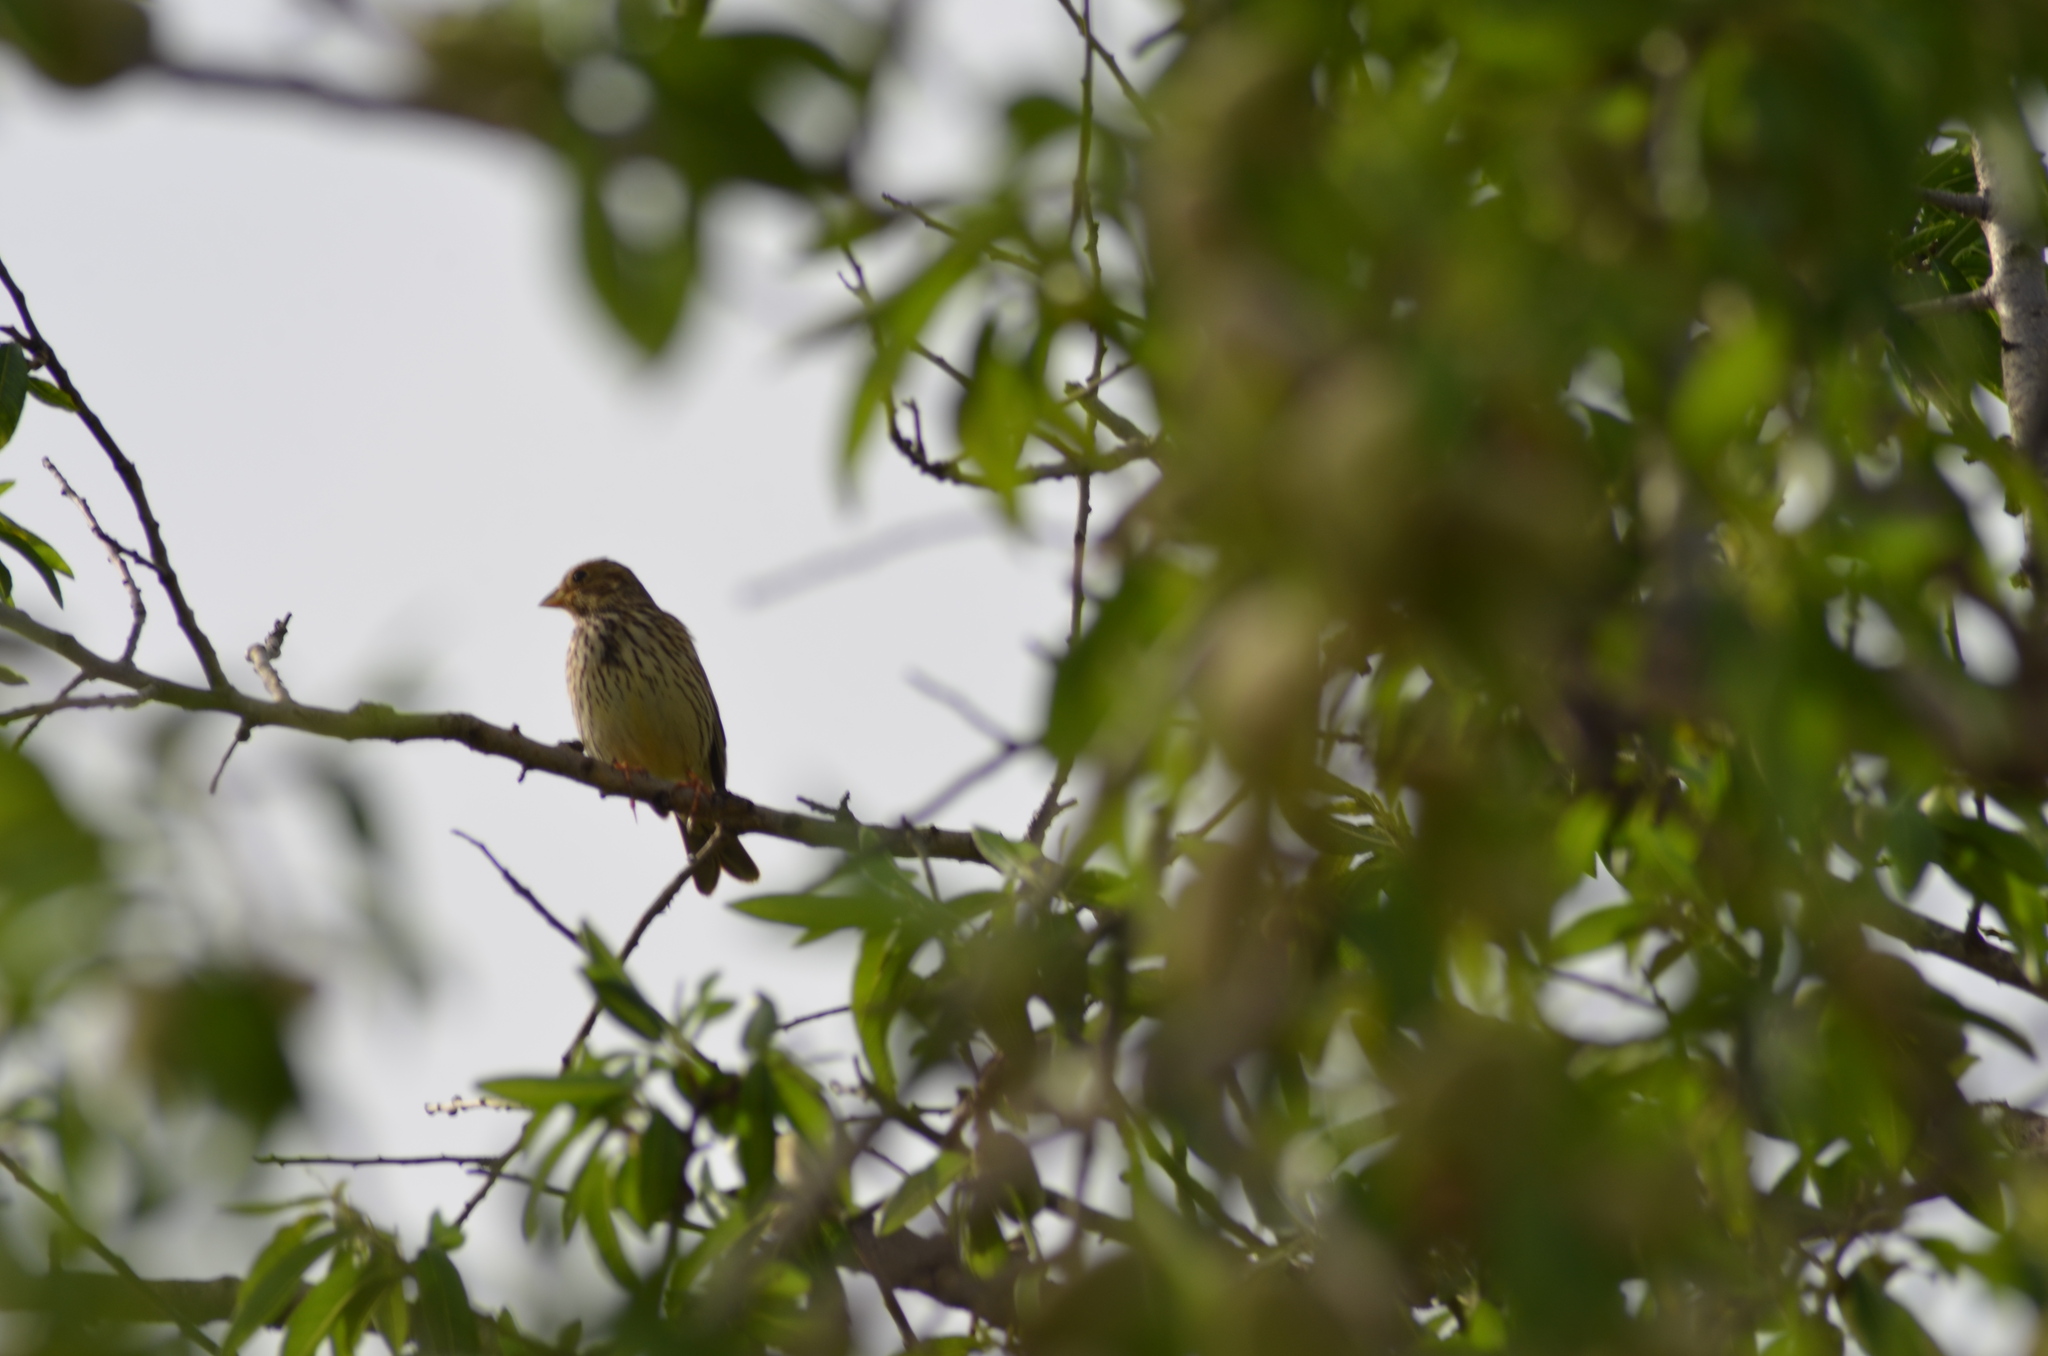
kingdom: Animalia
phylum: Chordata
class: Aves
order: Passeriformes
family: Emberizidae
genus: Emberiza
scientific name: Emberiza calandra
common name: Corn bunting
